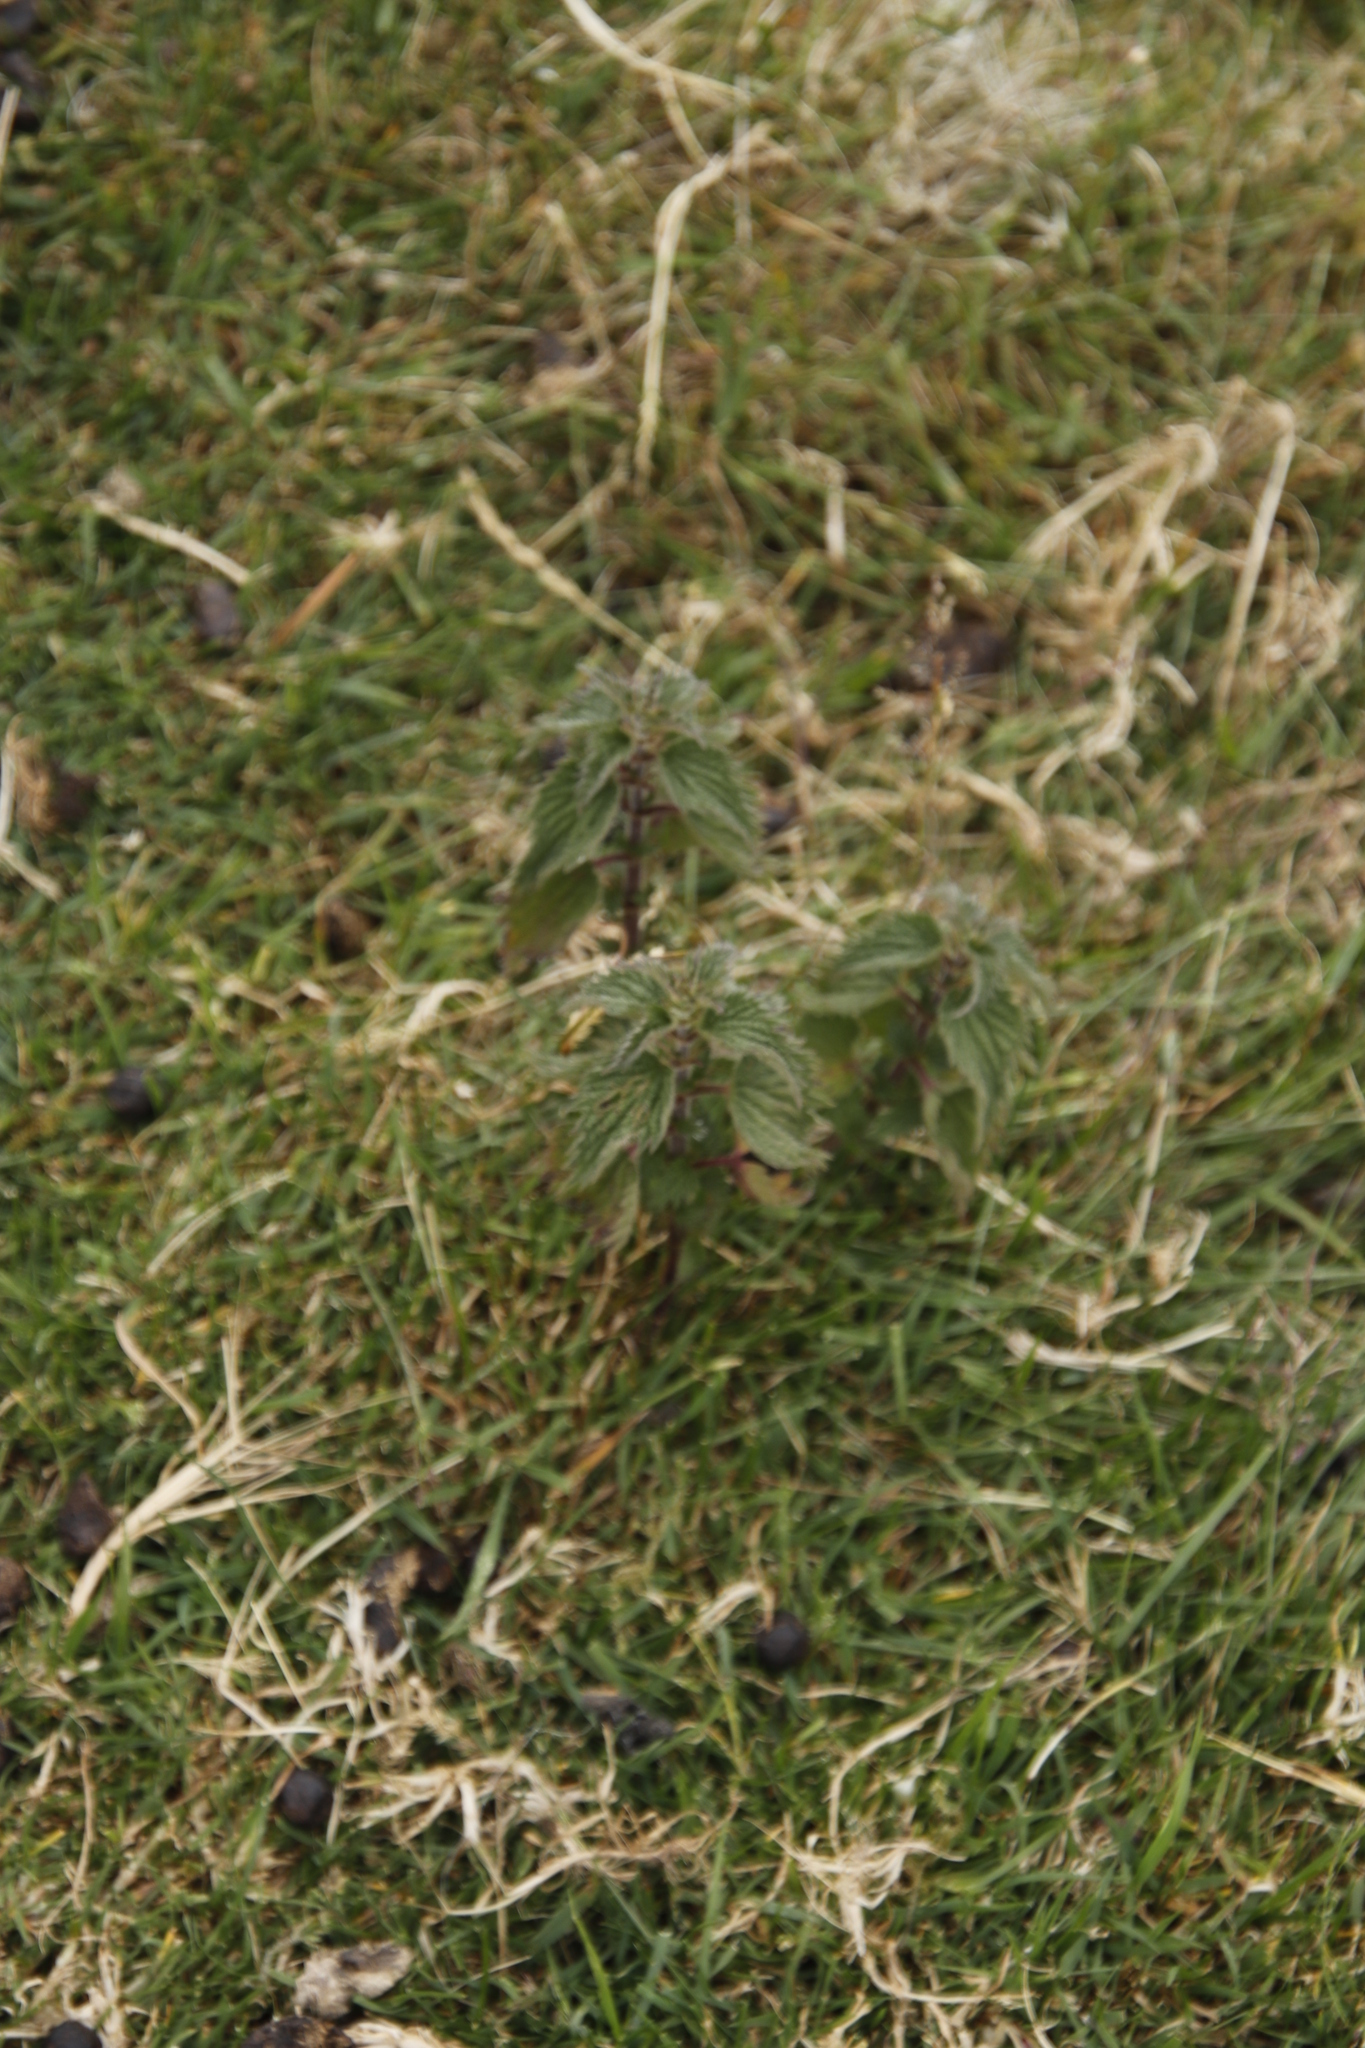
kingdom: Plantae
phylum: Tracheophyta
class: Magnoliopsida
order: Rosales
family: Urticaceae
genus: Urtica
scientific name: Urtica dioica
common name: Common nettle
